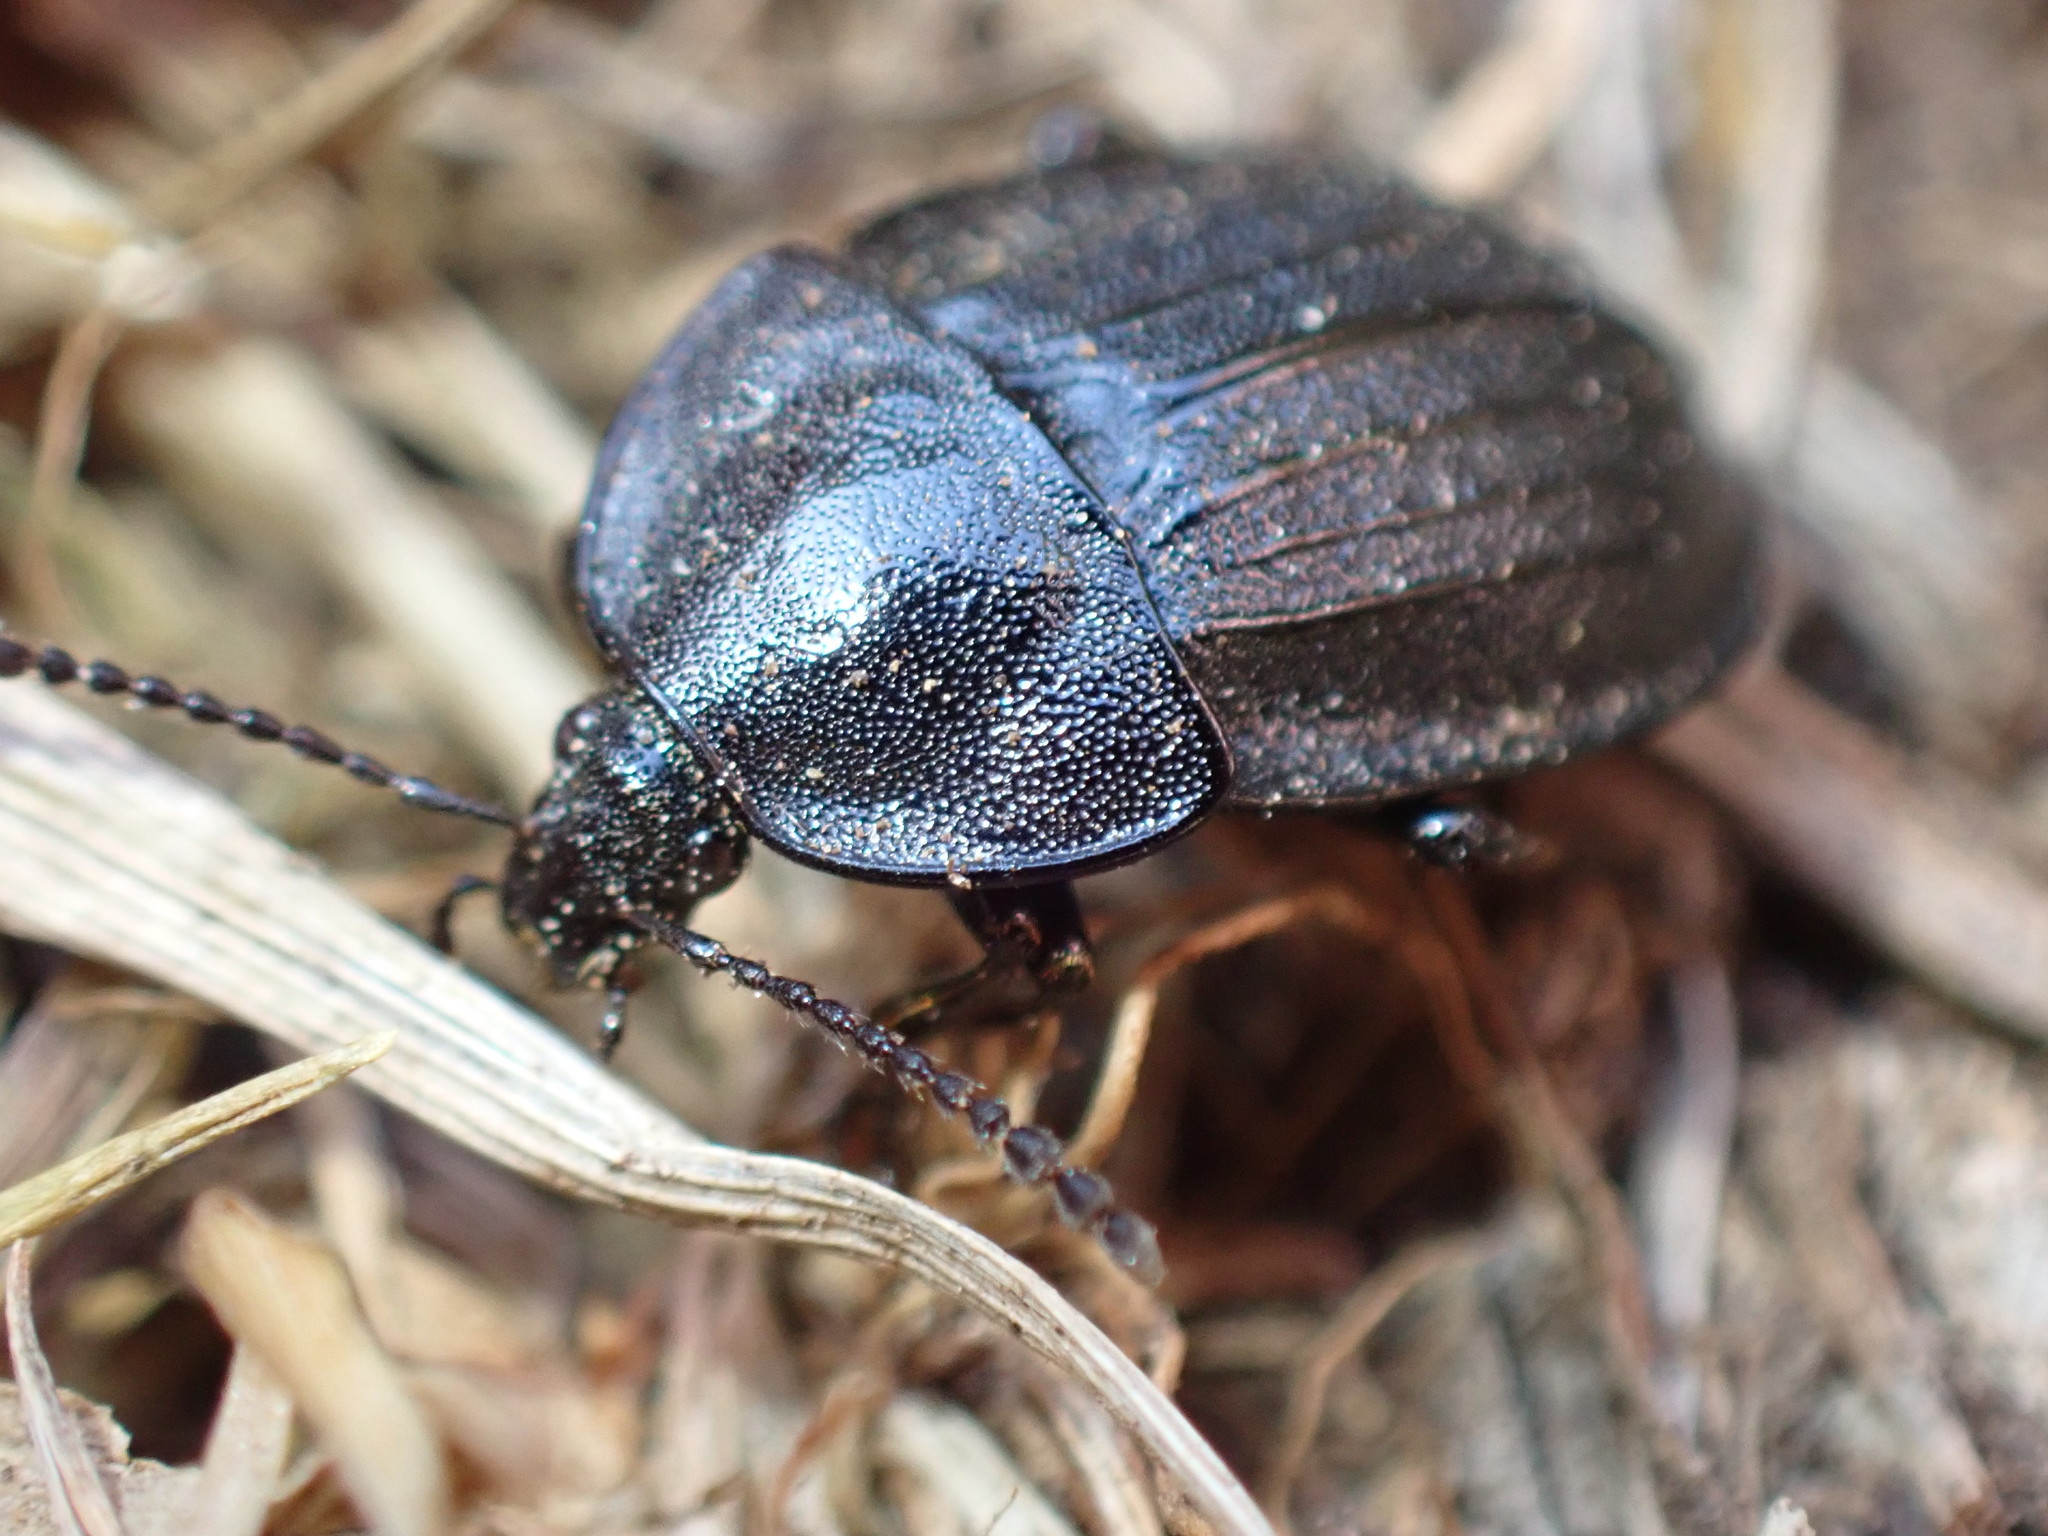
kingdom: Animalia
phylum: Arthropoda
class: Insecta
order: Coleoptera
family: Staphylinidae
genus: Silpha
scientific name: Silpha atrata
